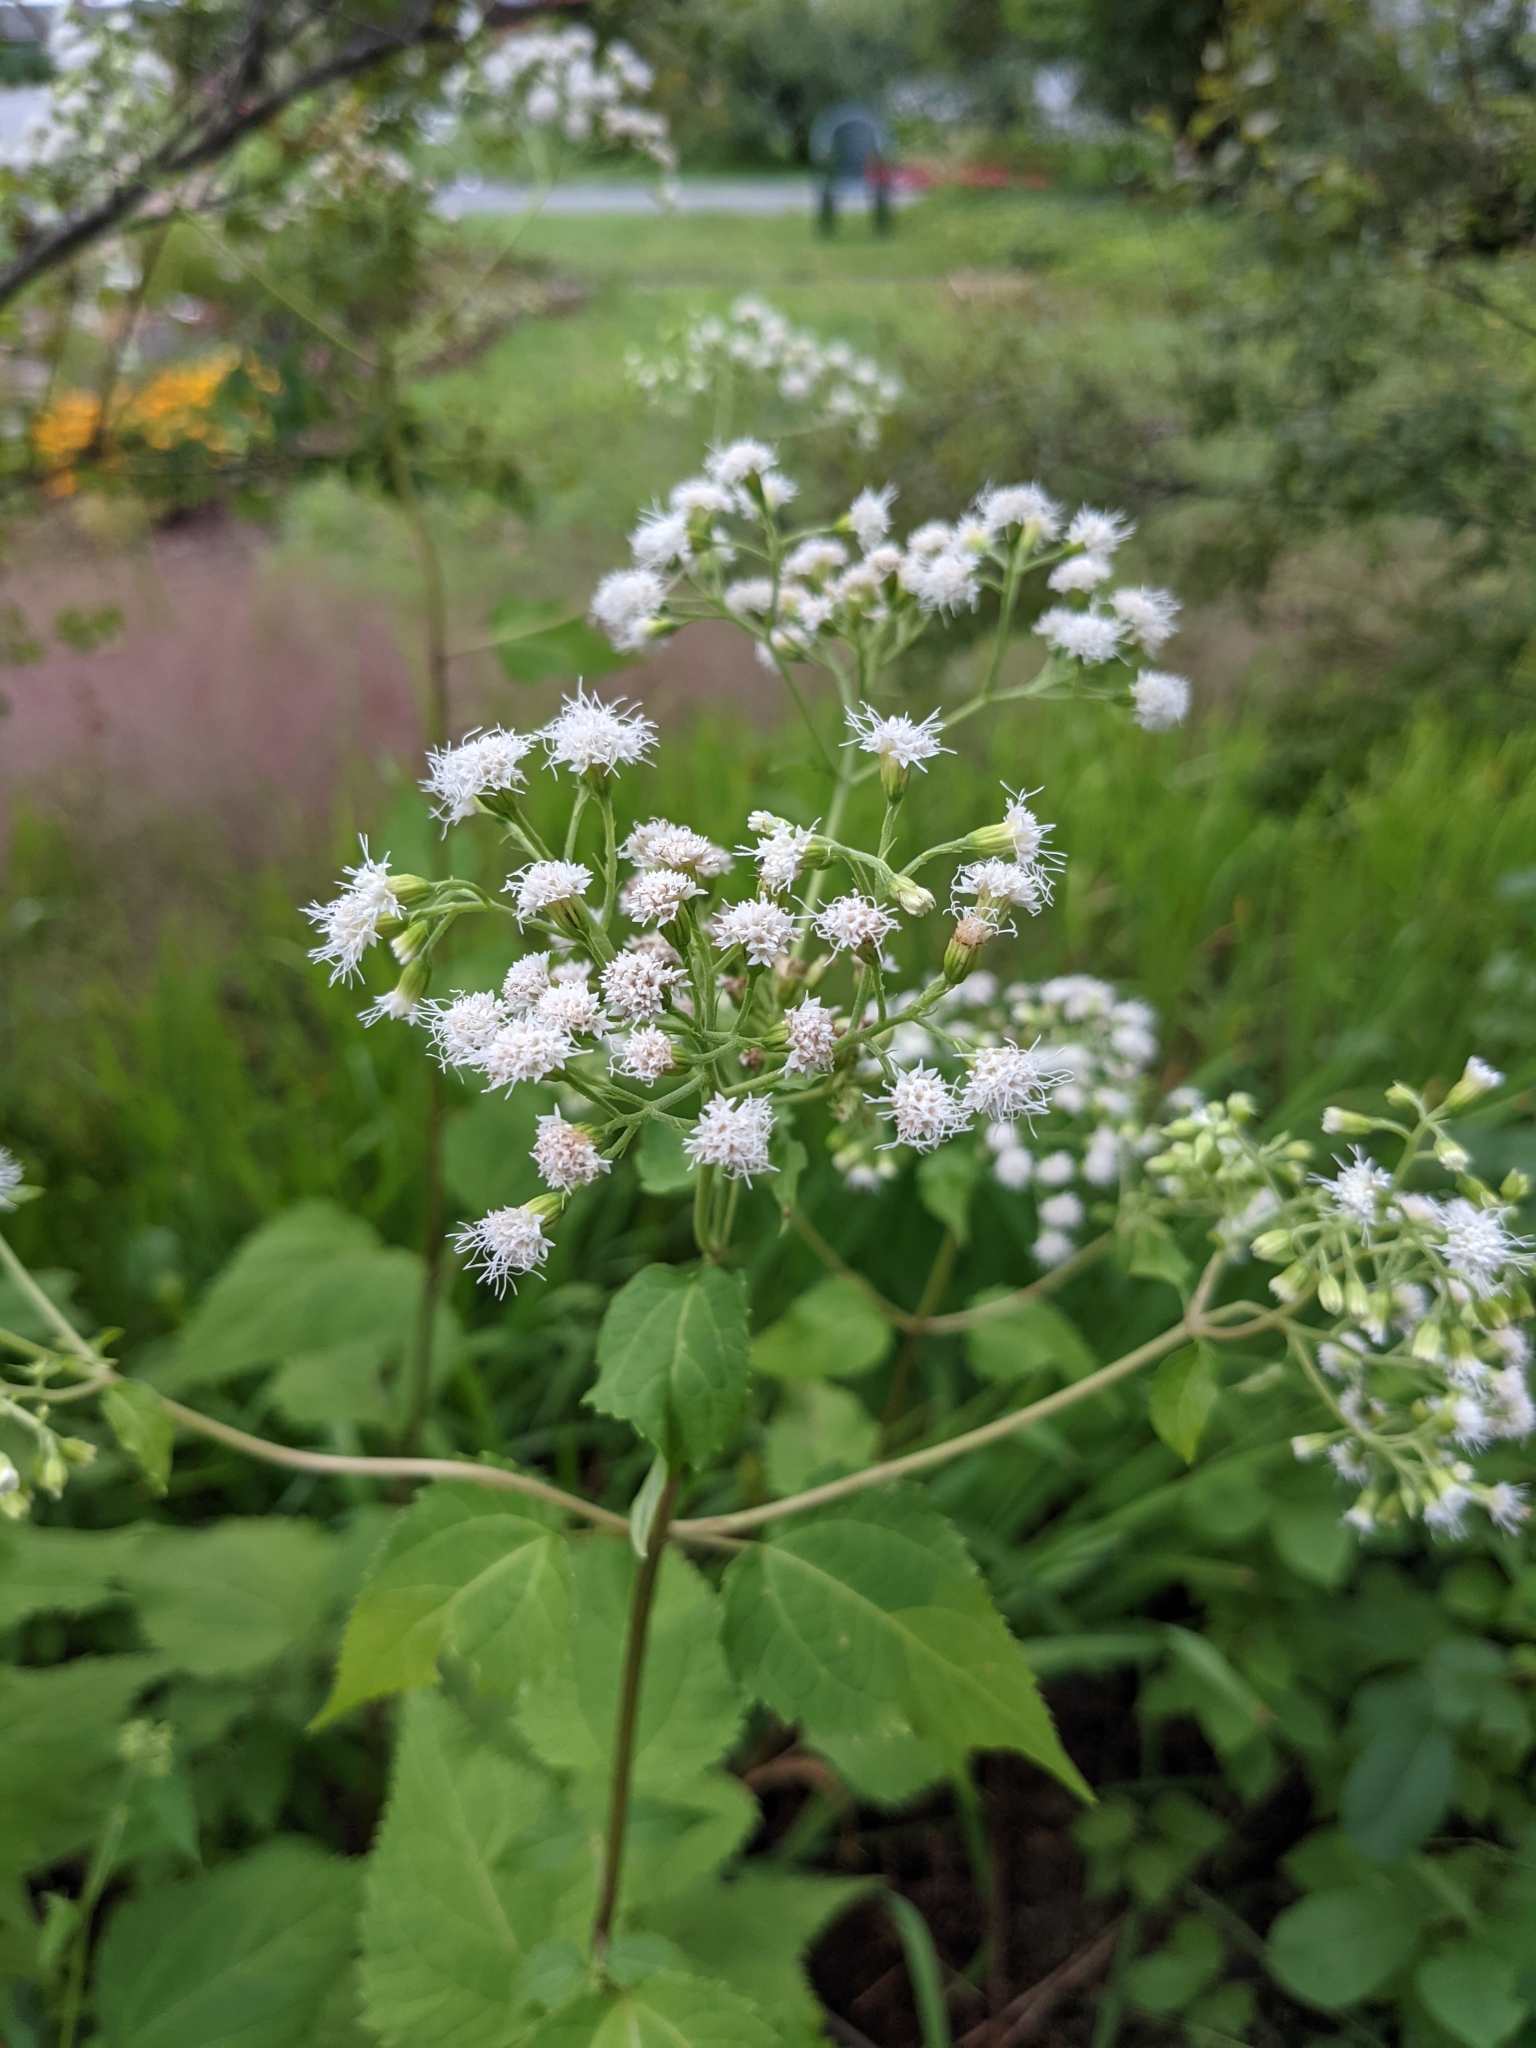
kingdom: Plantae
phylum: Tracheophyta
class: Magnoliopsida
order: Asterales
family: Asteraceae
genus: Ageratina
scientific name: Ageratina altissima
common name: White snakeroot
